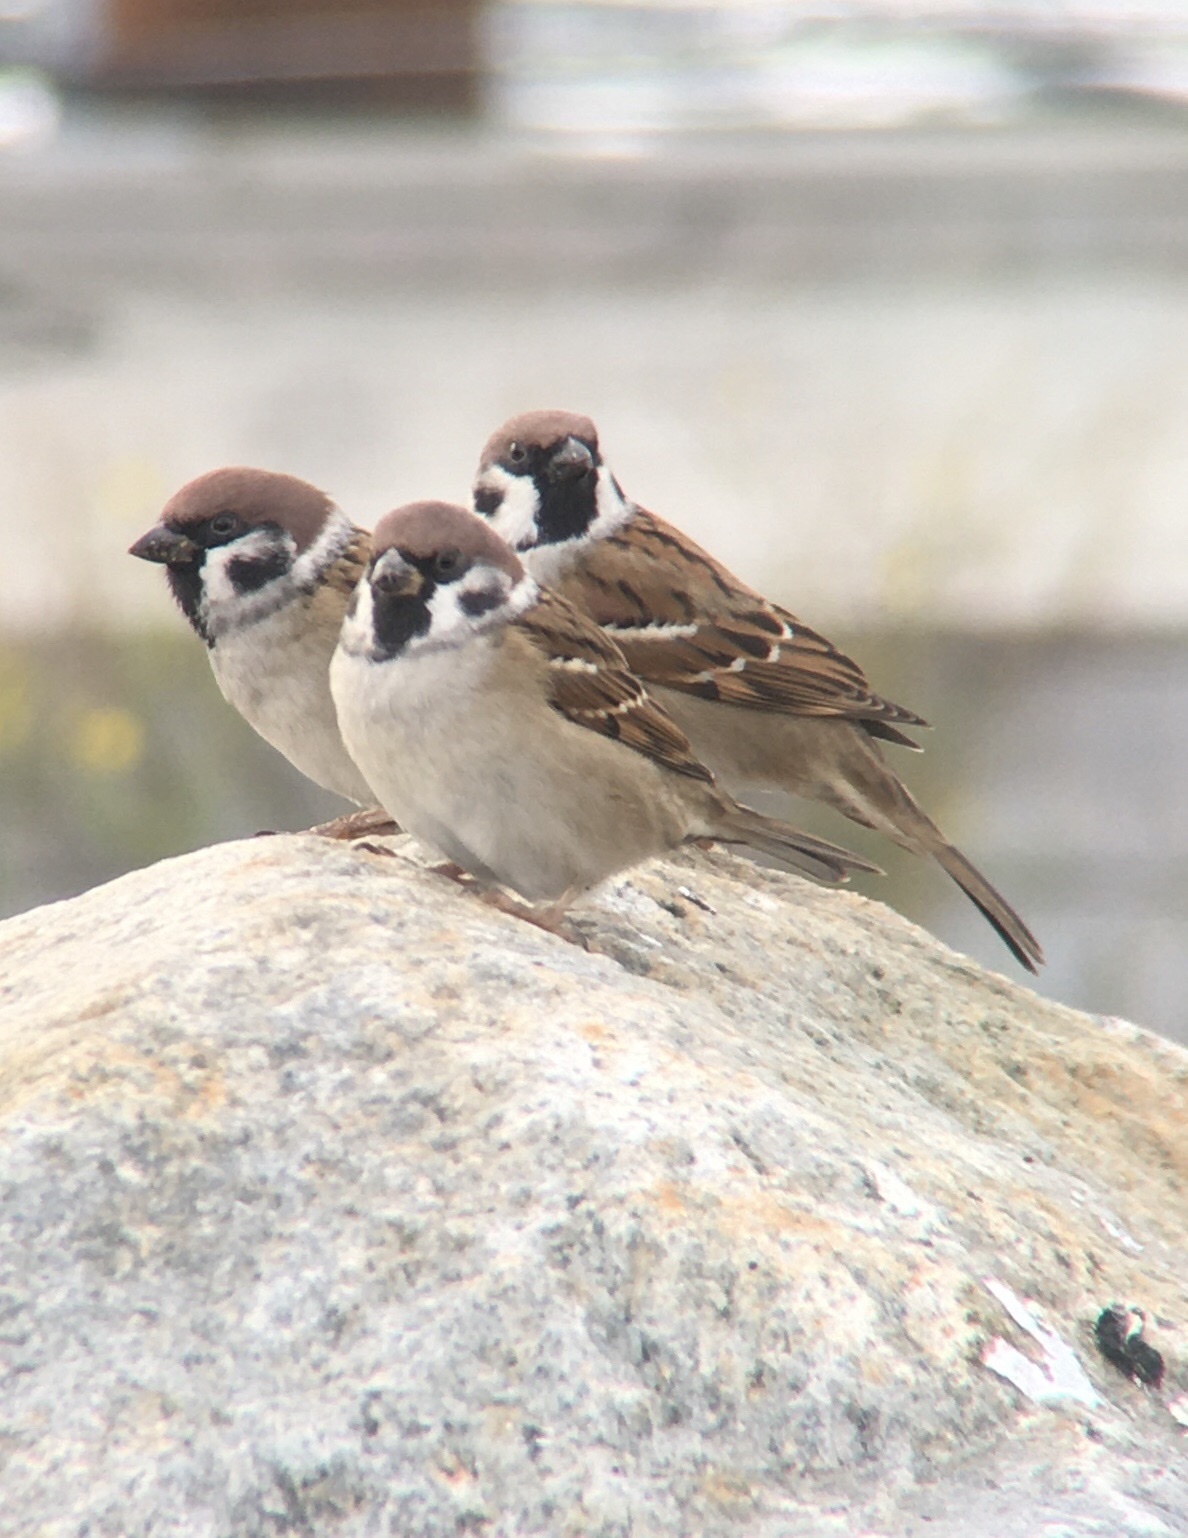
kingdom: Animalia
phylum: Chordata
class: Aves
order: Passeriformes
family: Passeridae
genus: Passer
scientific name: Passer montanus
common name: Eurasian tree sparrow
